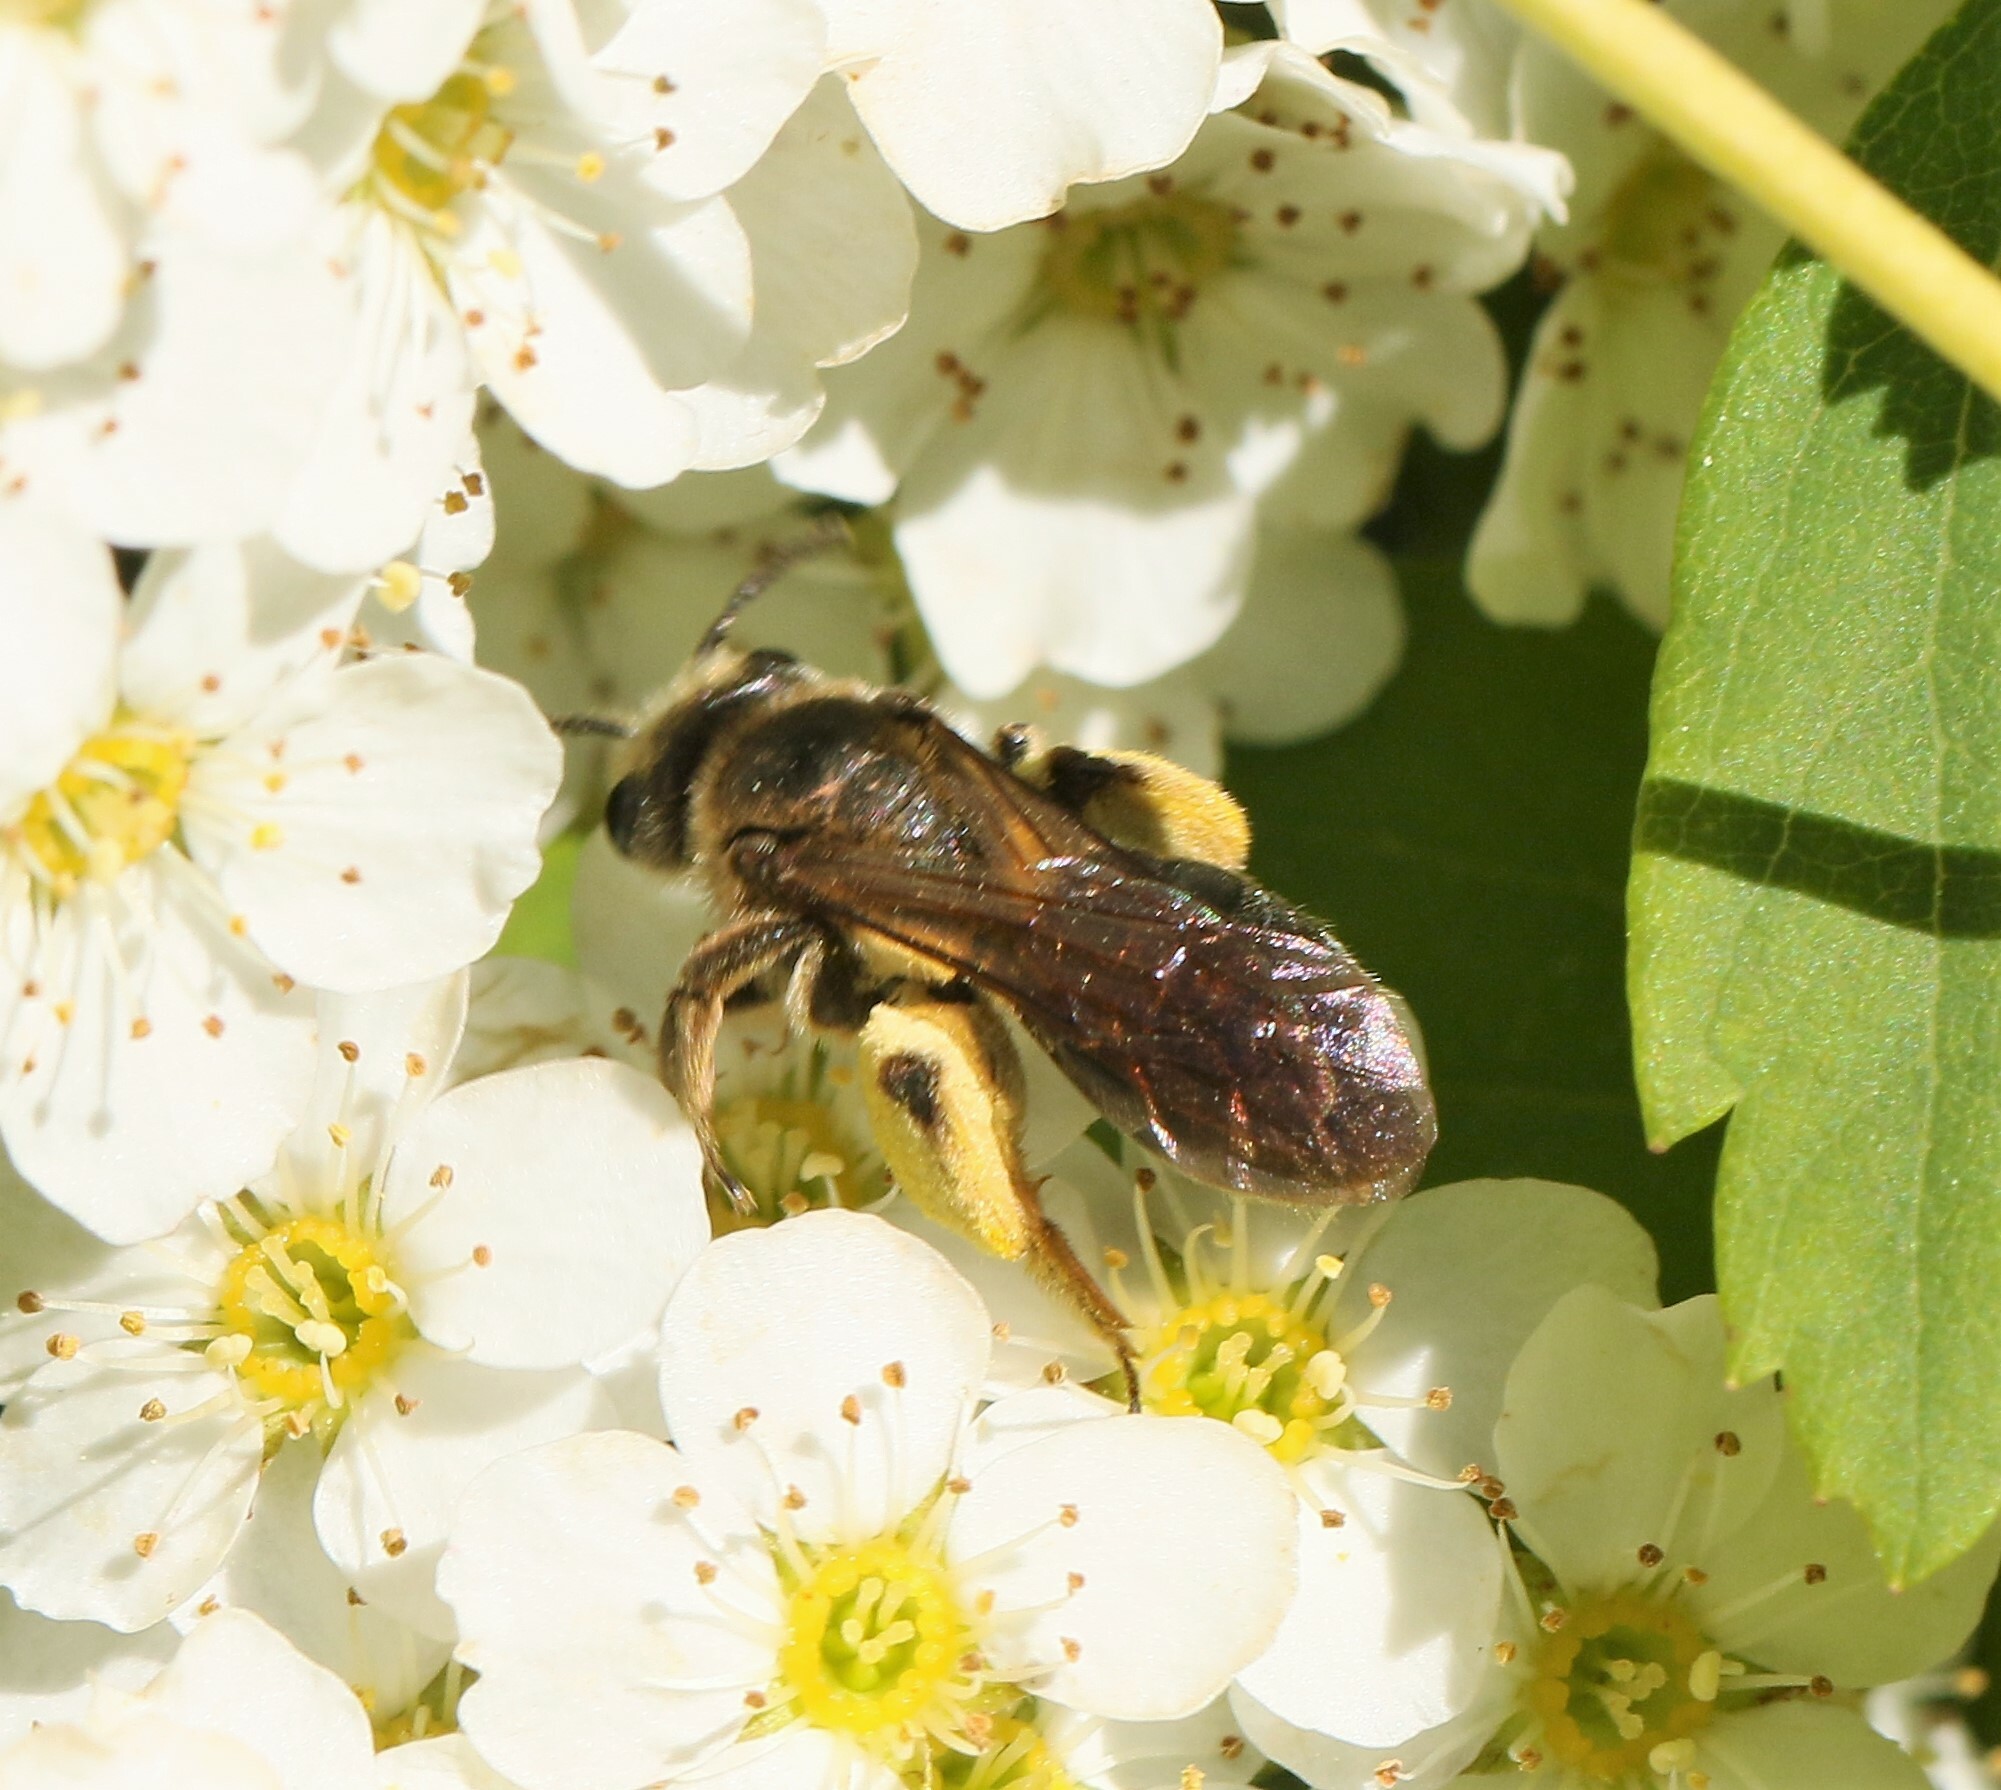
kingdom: Animalia
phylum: Arthropoda
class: Insecta
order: Hymenoptera
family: Andrenidae
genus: Andrena
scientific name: Andrena crataegi
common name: Hawthorn mining bee
